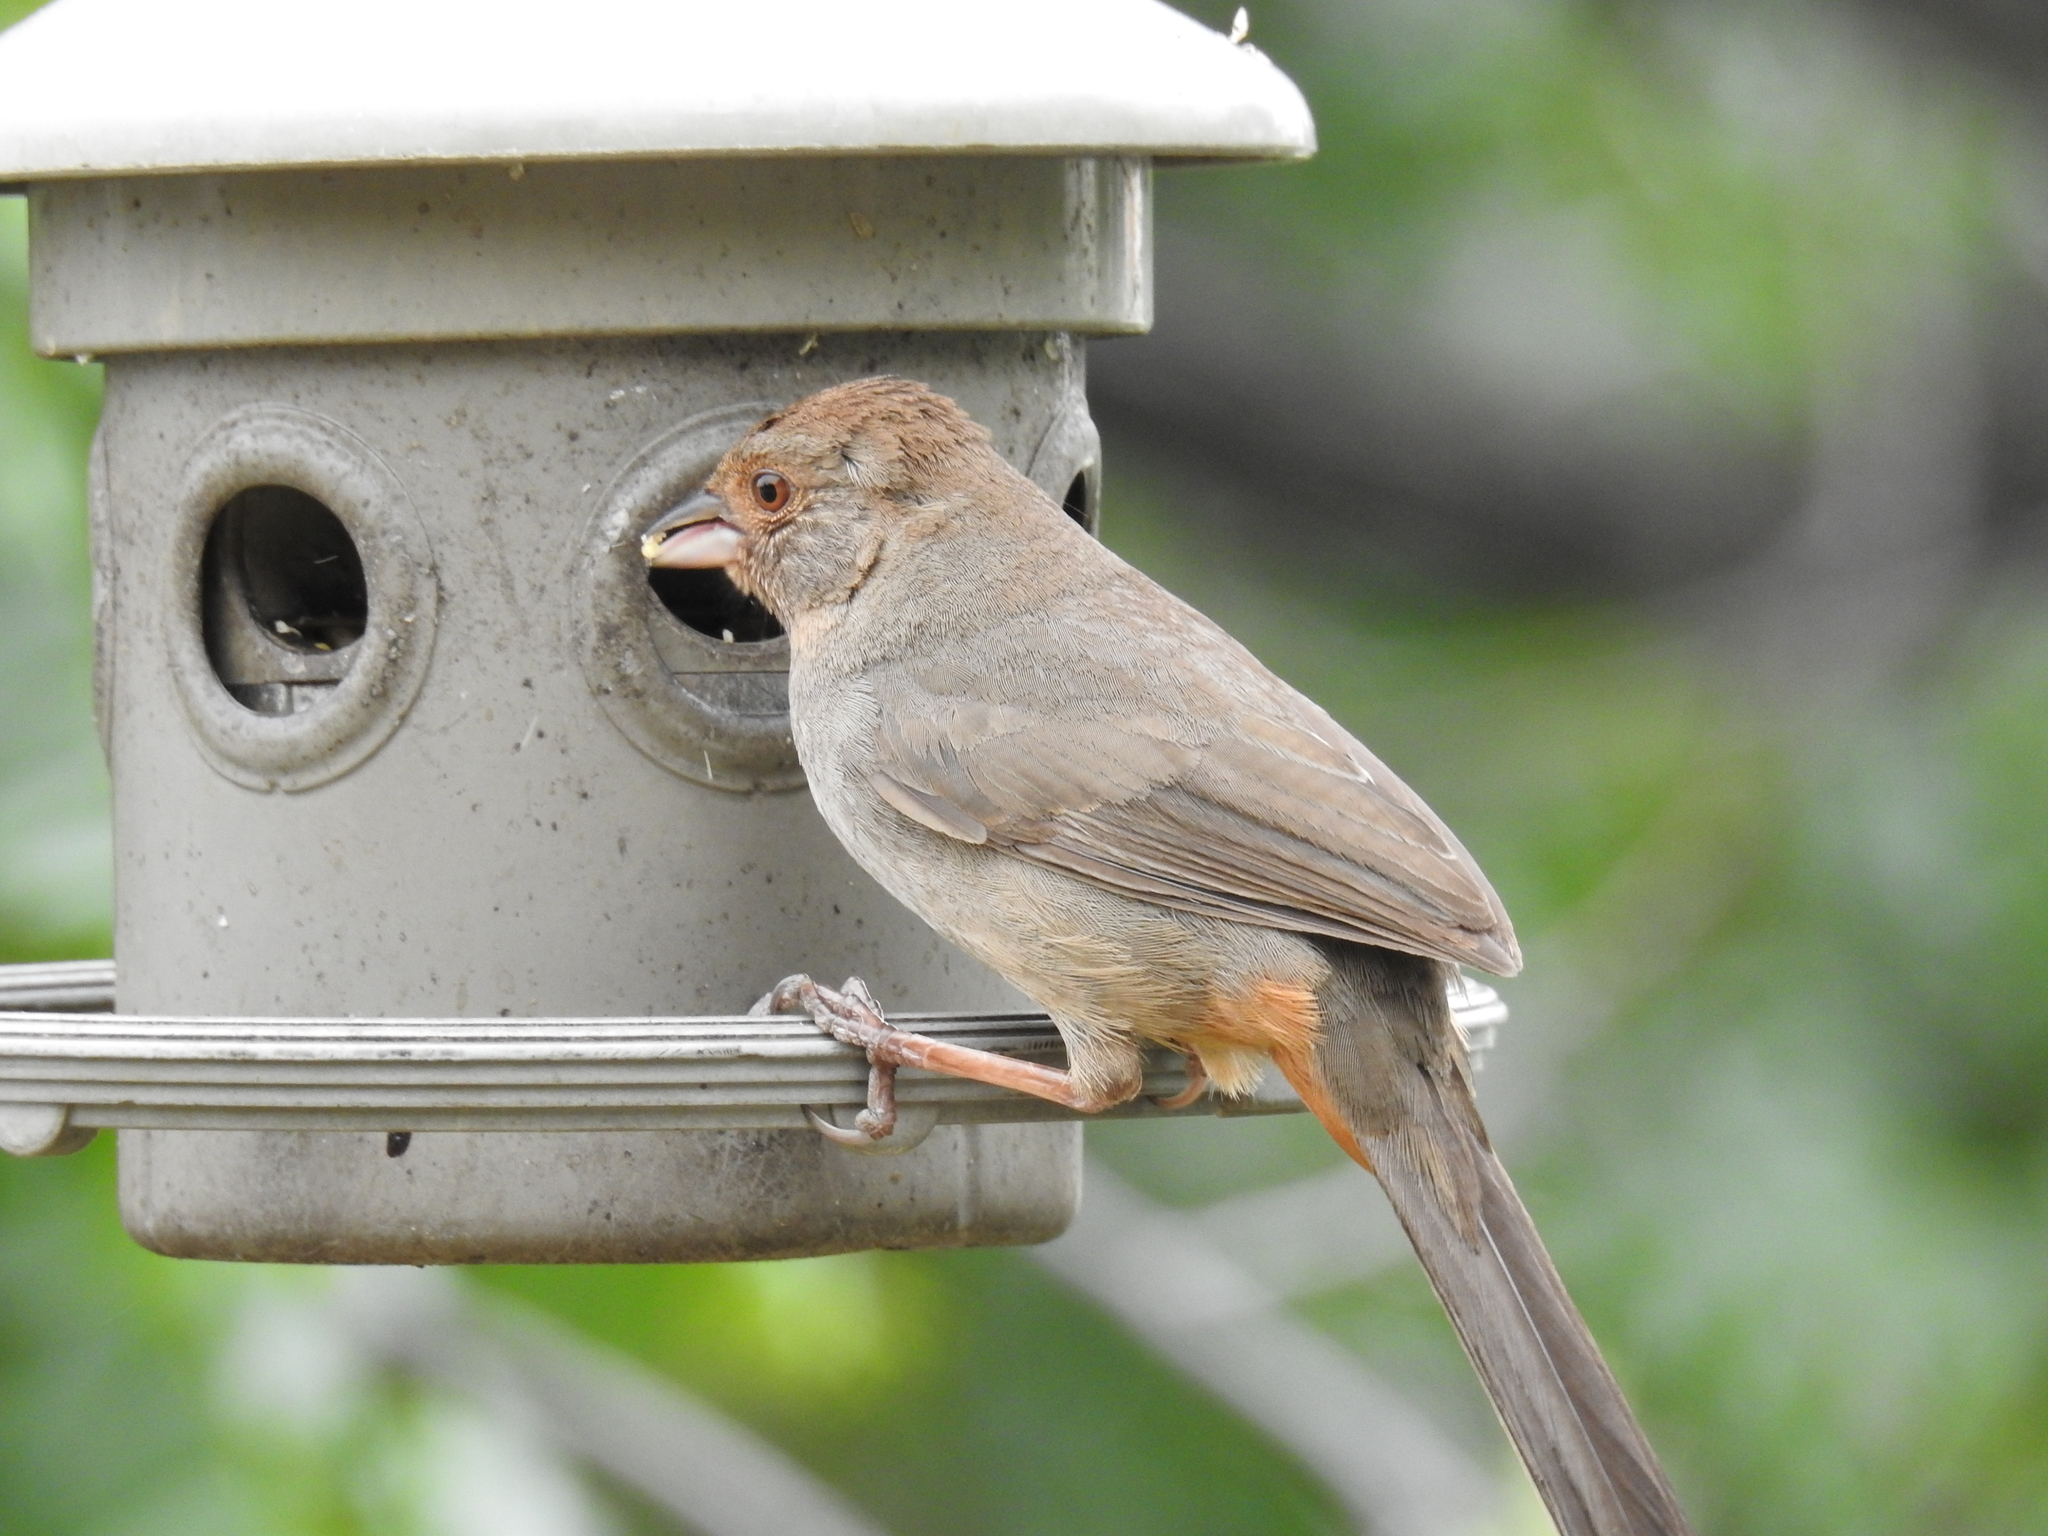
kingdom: Animalia
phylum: Chordata
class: Aves
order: Passeriformes
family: Passerellidae
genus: Melozone
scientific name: Melozone crissalis
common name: California towhee
